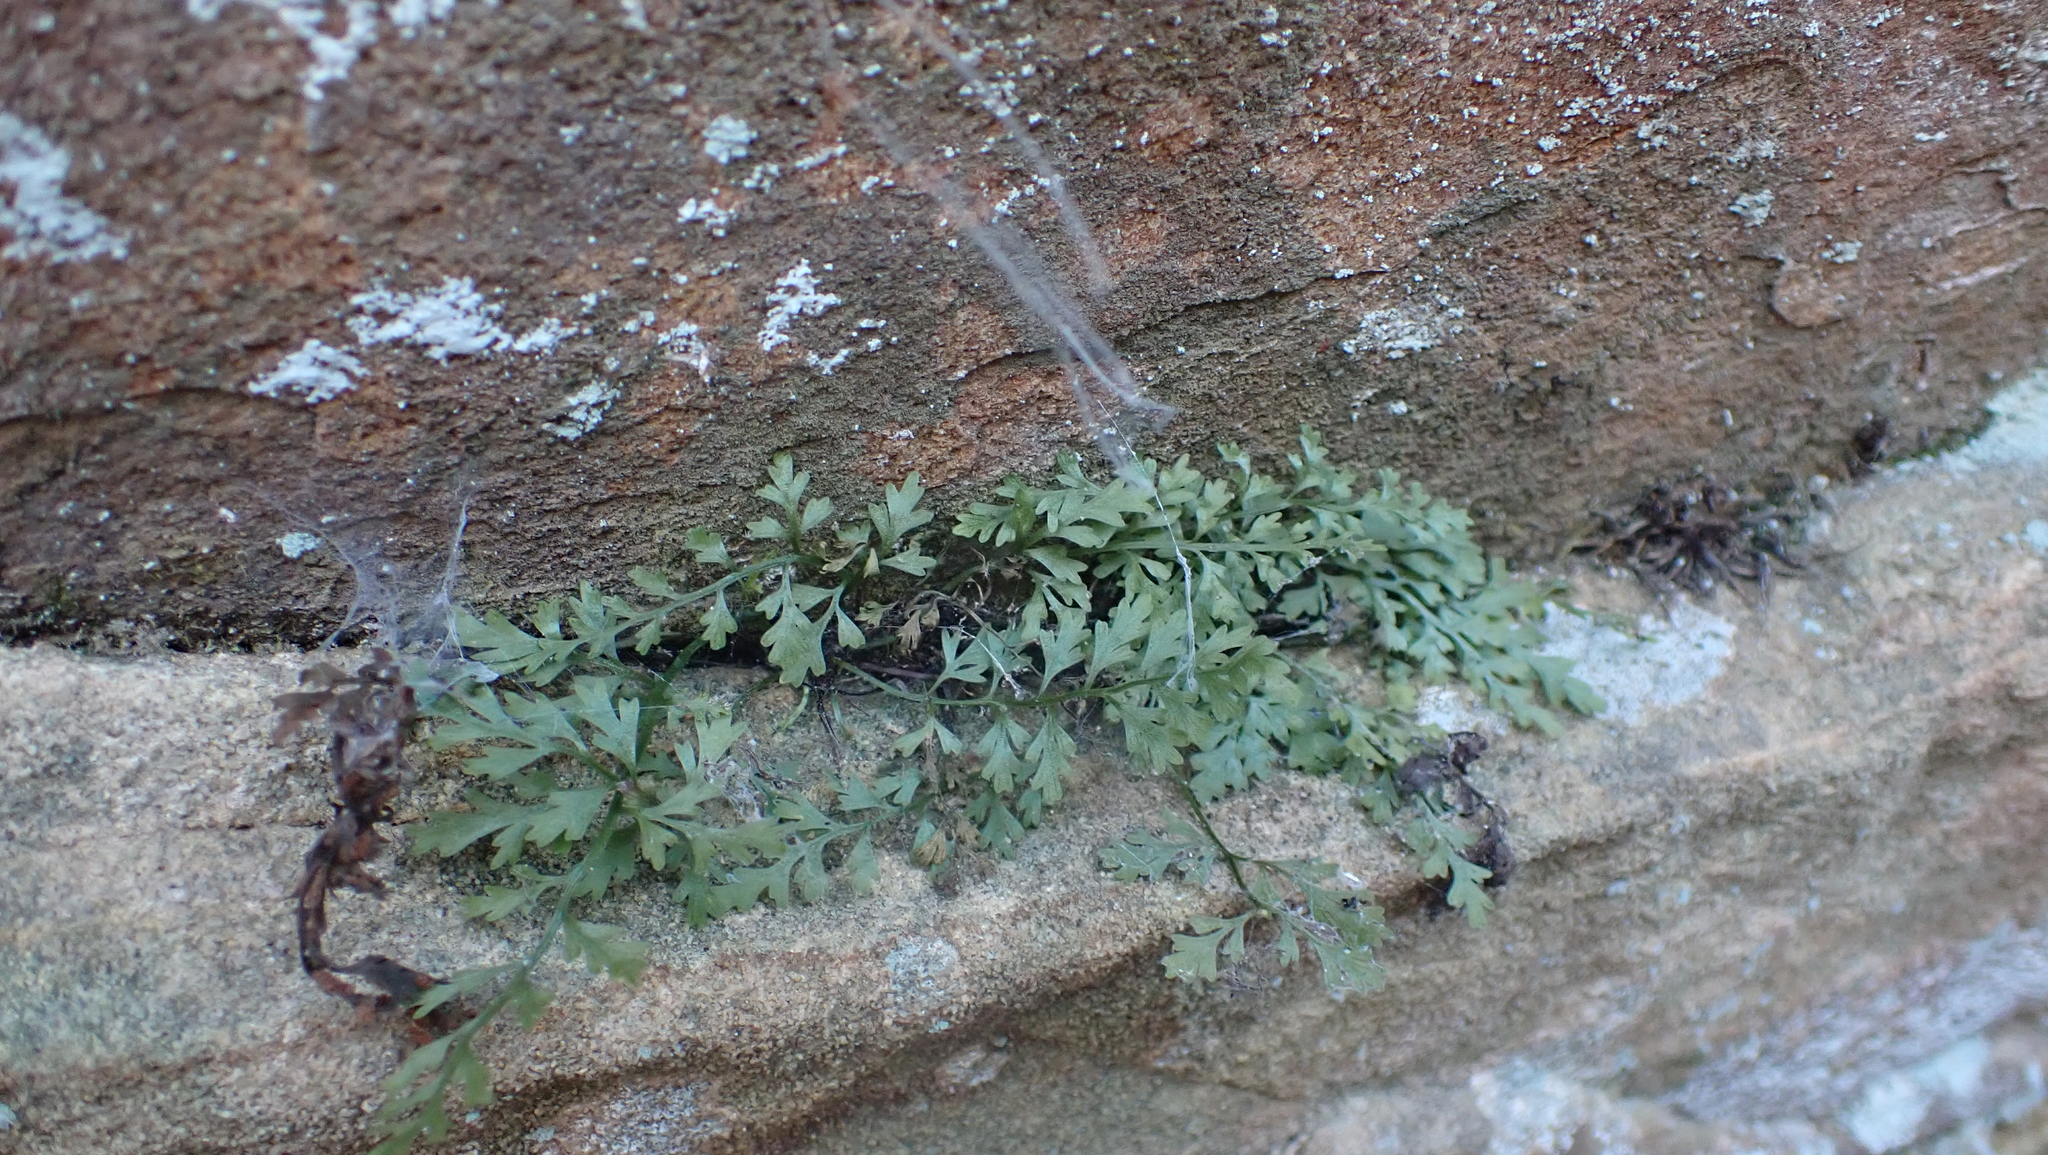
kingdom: Plantae
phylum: Tracheophyta
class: Polypodiopsida
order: Polypodiales
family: Aspleniaceae
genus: Asplenium
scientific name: Asplenium montanum
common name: Mountain spleenwort
